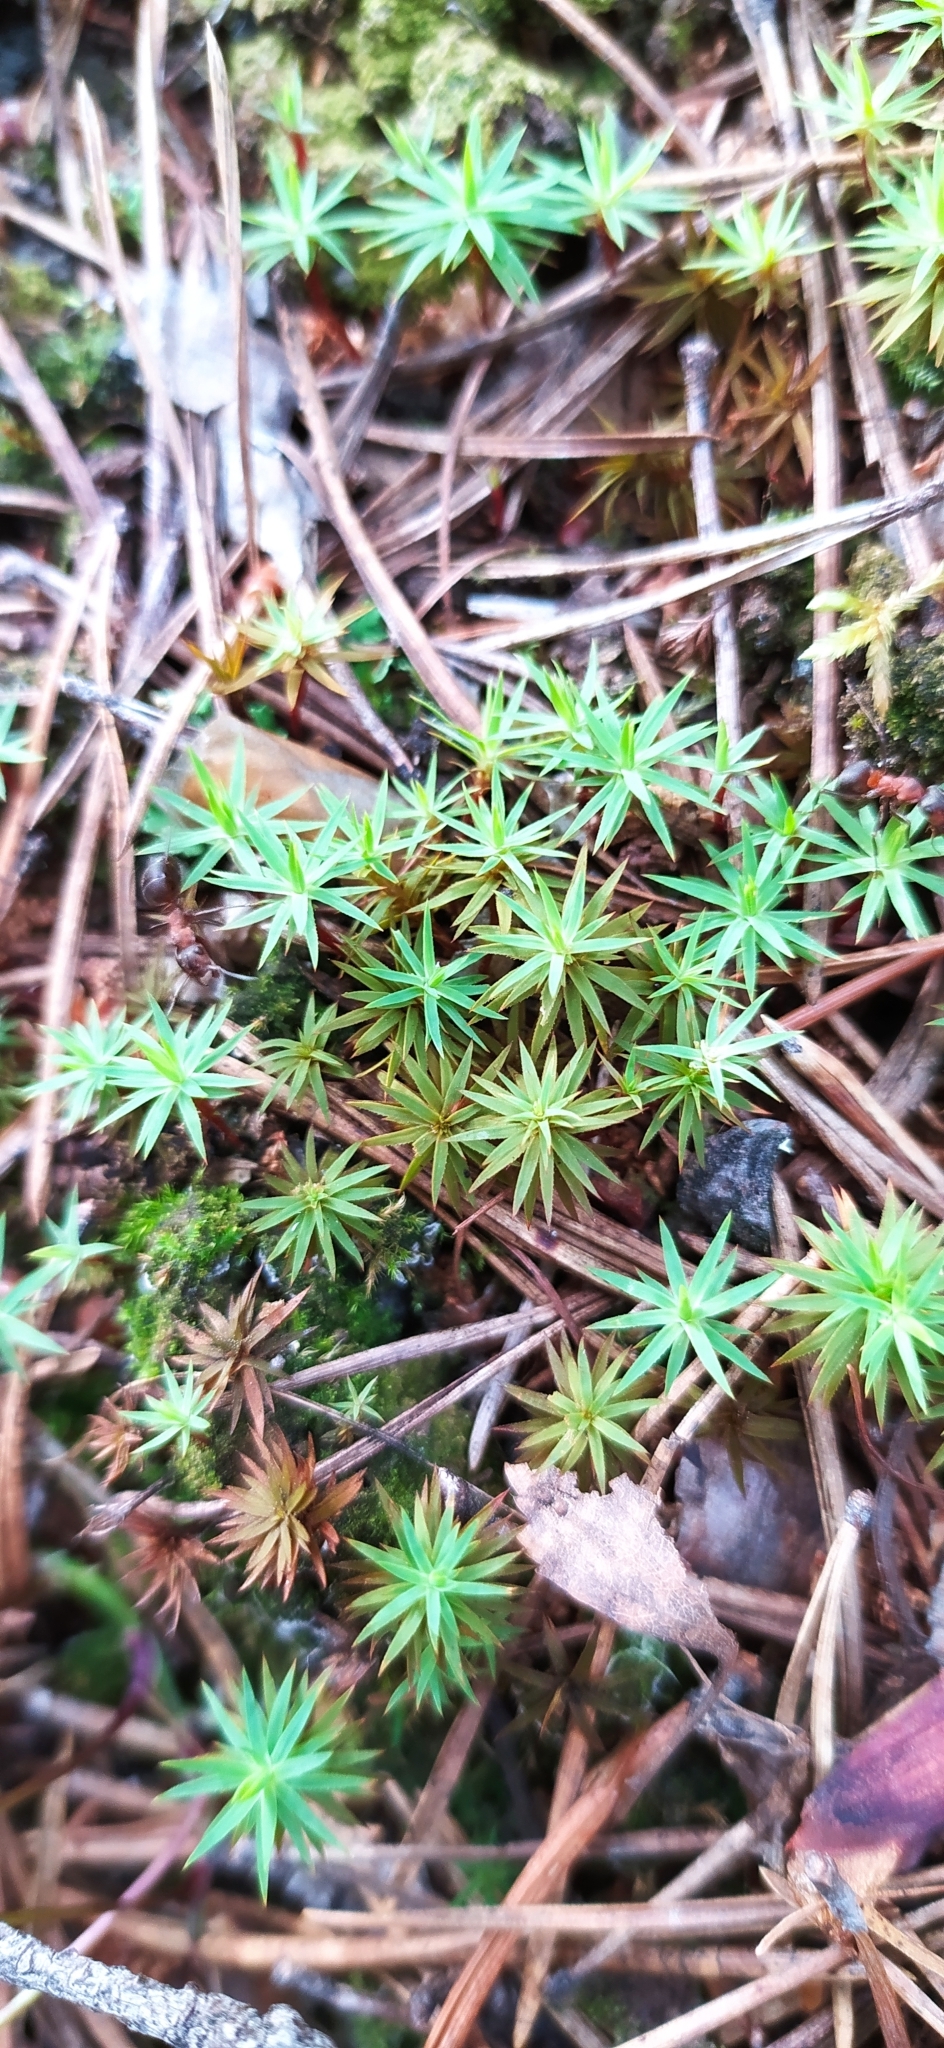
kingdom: Plantae
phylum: Bryophyta
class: Polytrichopsida
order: Polytrichales
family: Polytrichaceae
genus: Pogonatum
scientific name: Pogonatum urnigerum
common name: Urn hair moss
